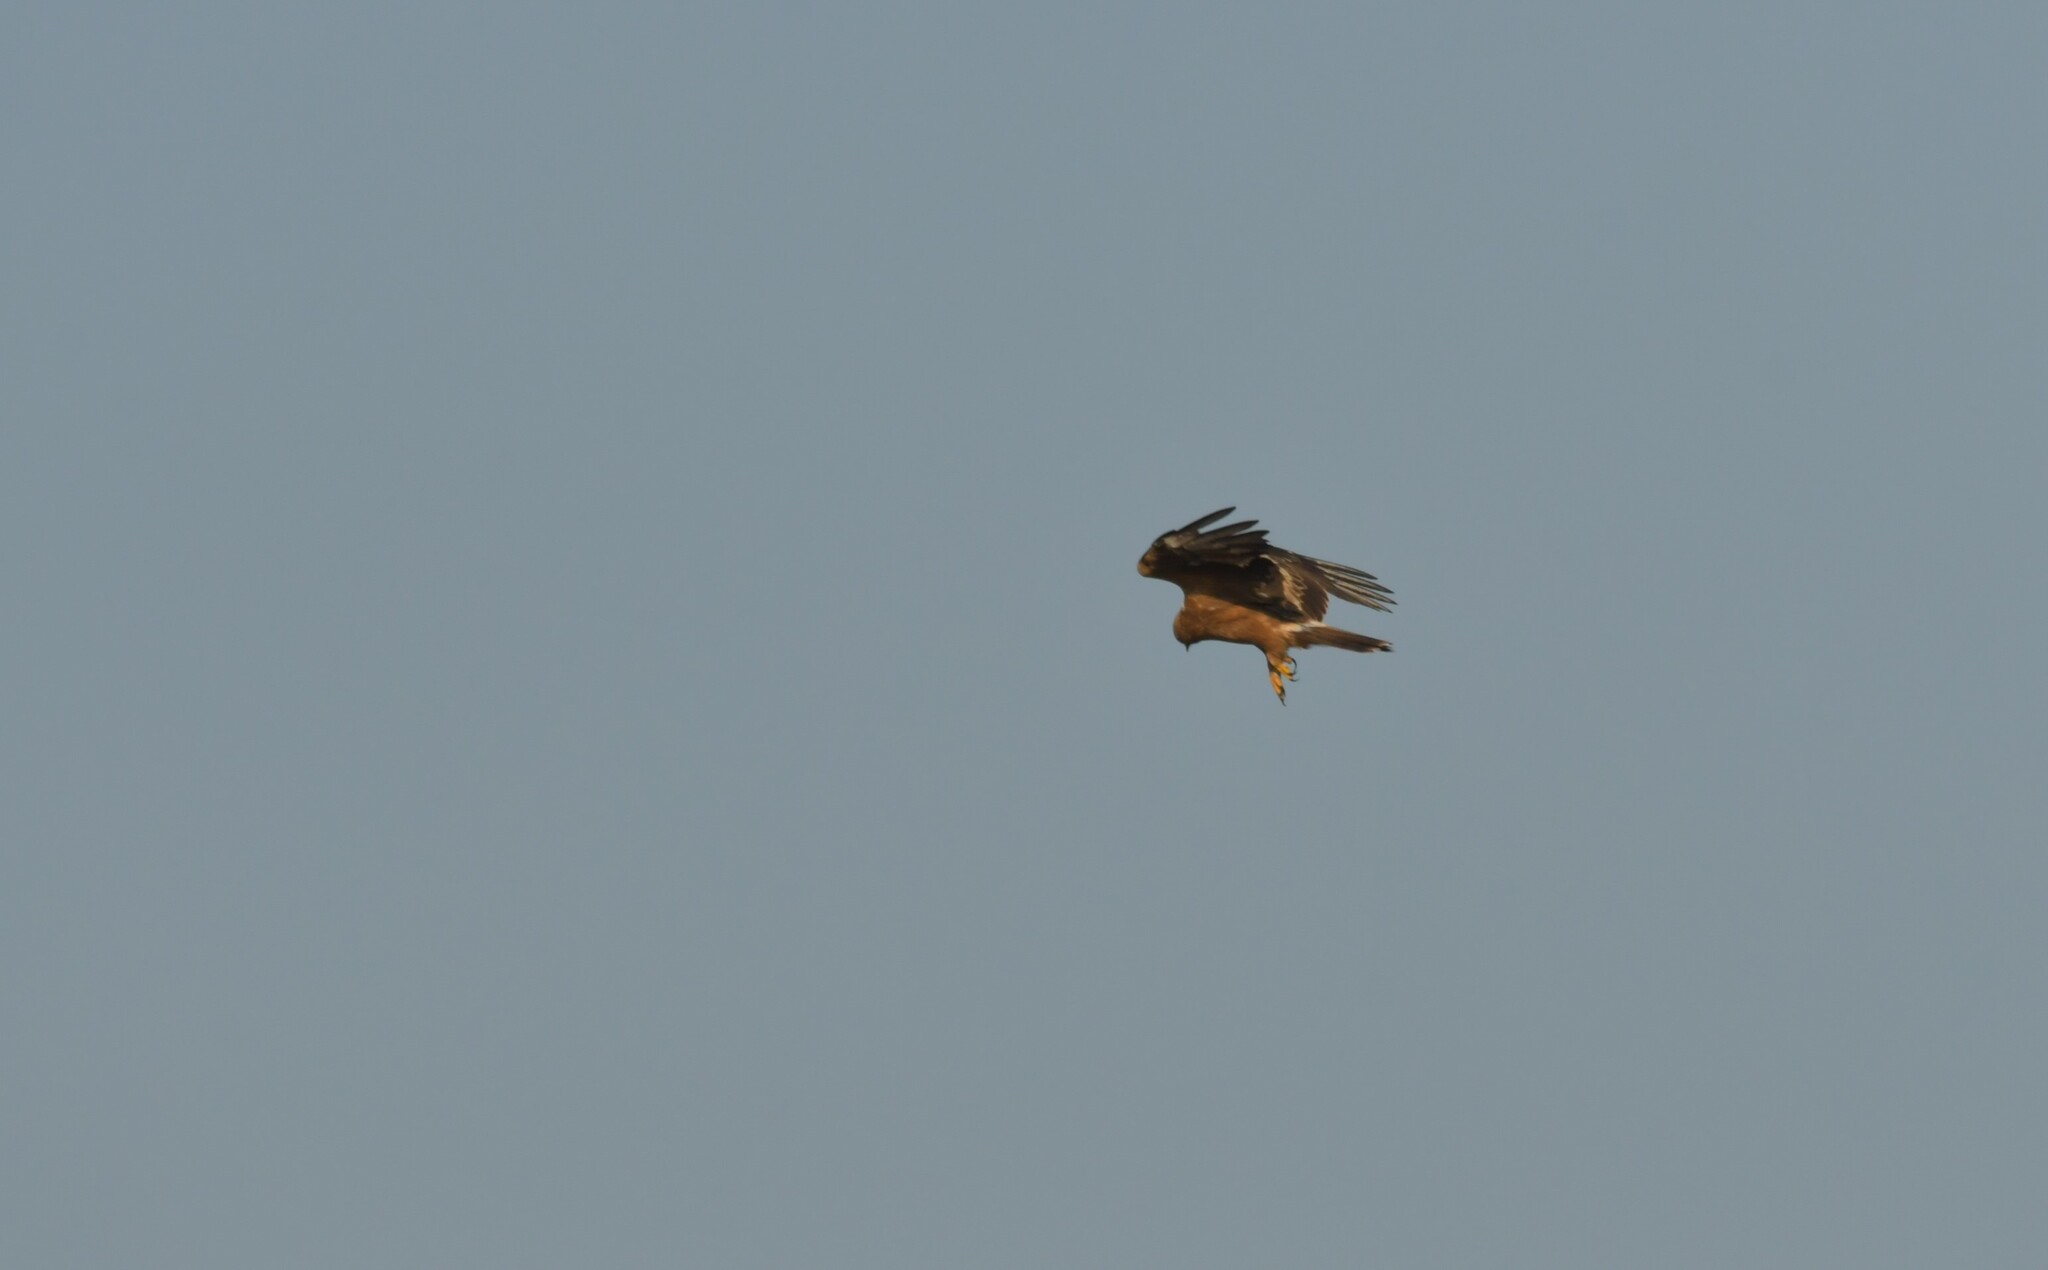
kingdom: Animalia
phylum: Chordata
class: Aves
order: Accipitriformes
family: Accipitridae
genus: Hieraaetus
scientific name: Hieraaetus pennatus
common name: Booted eagle
